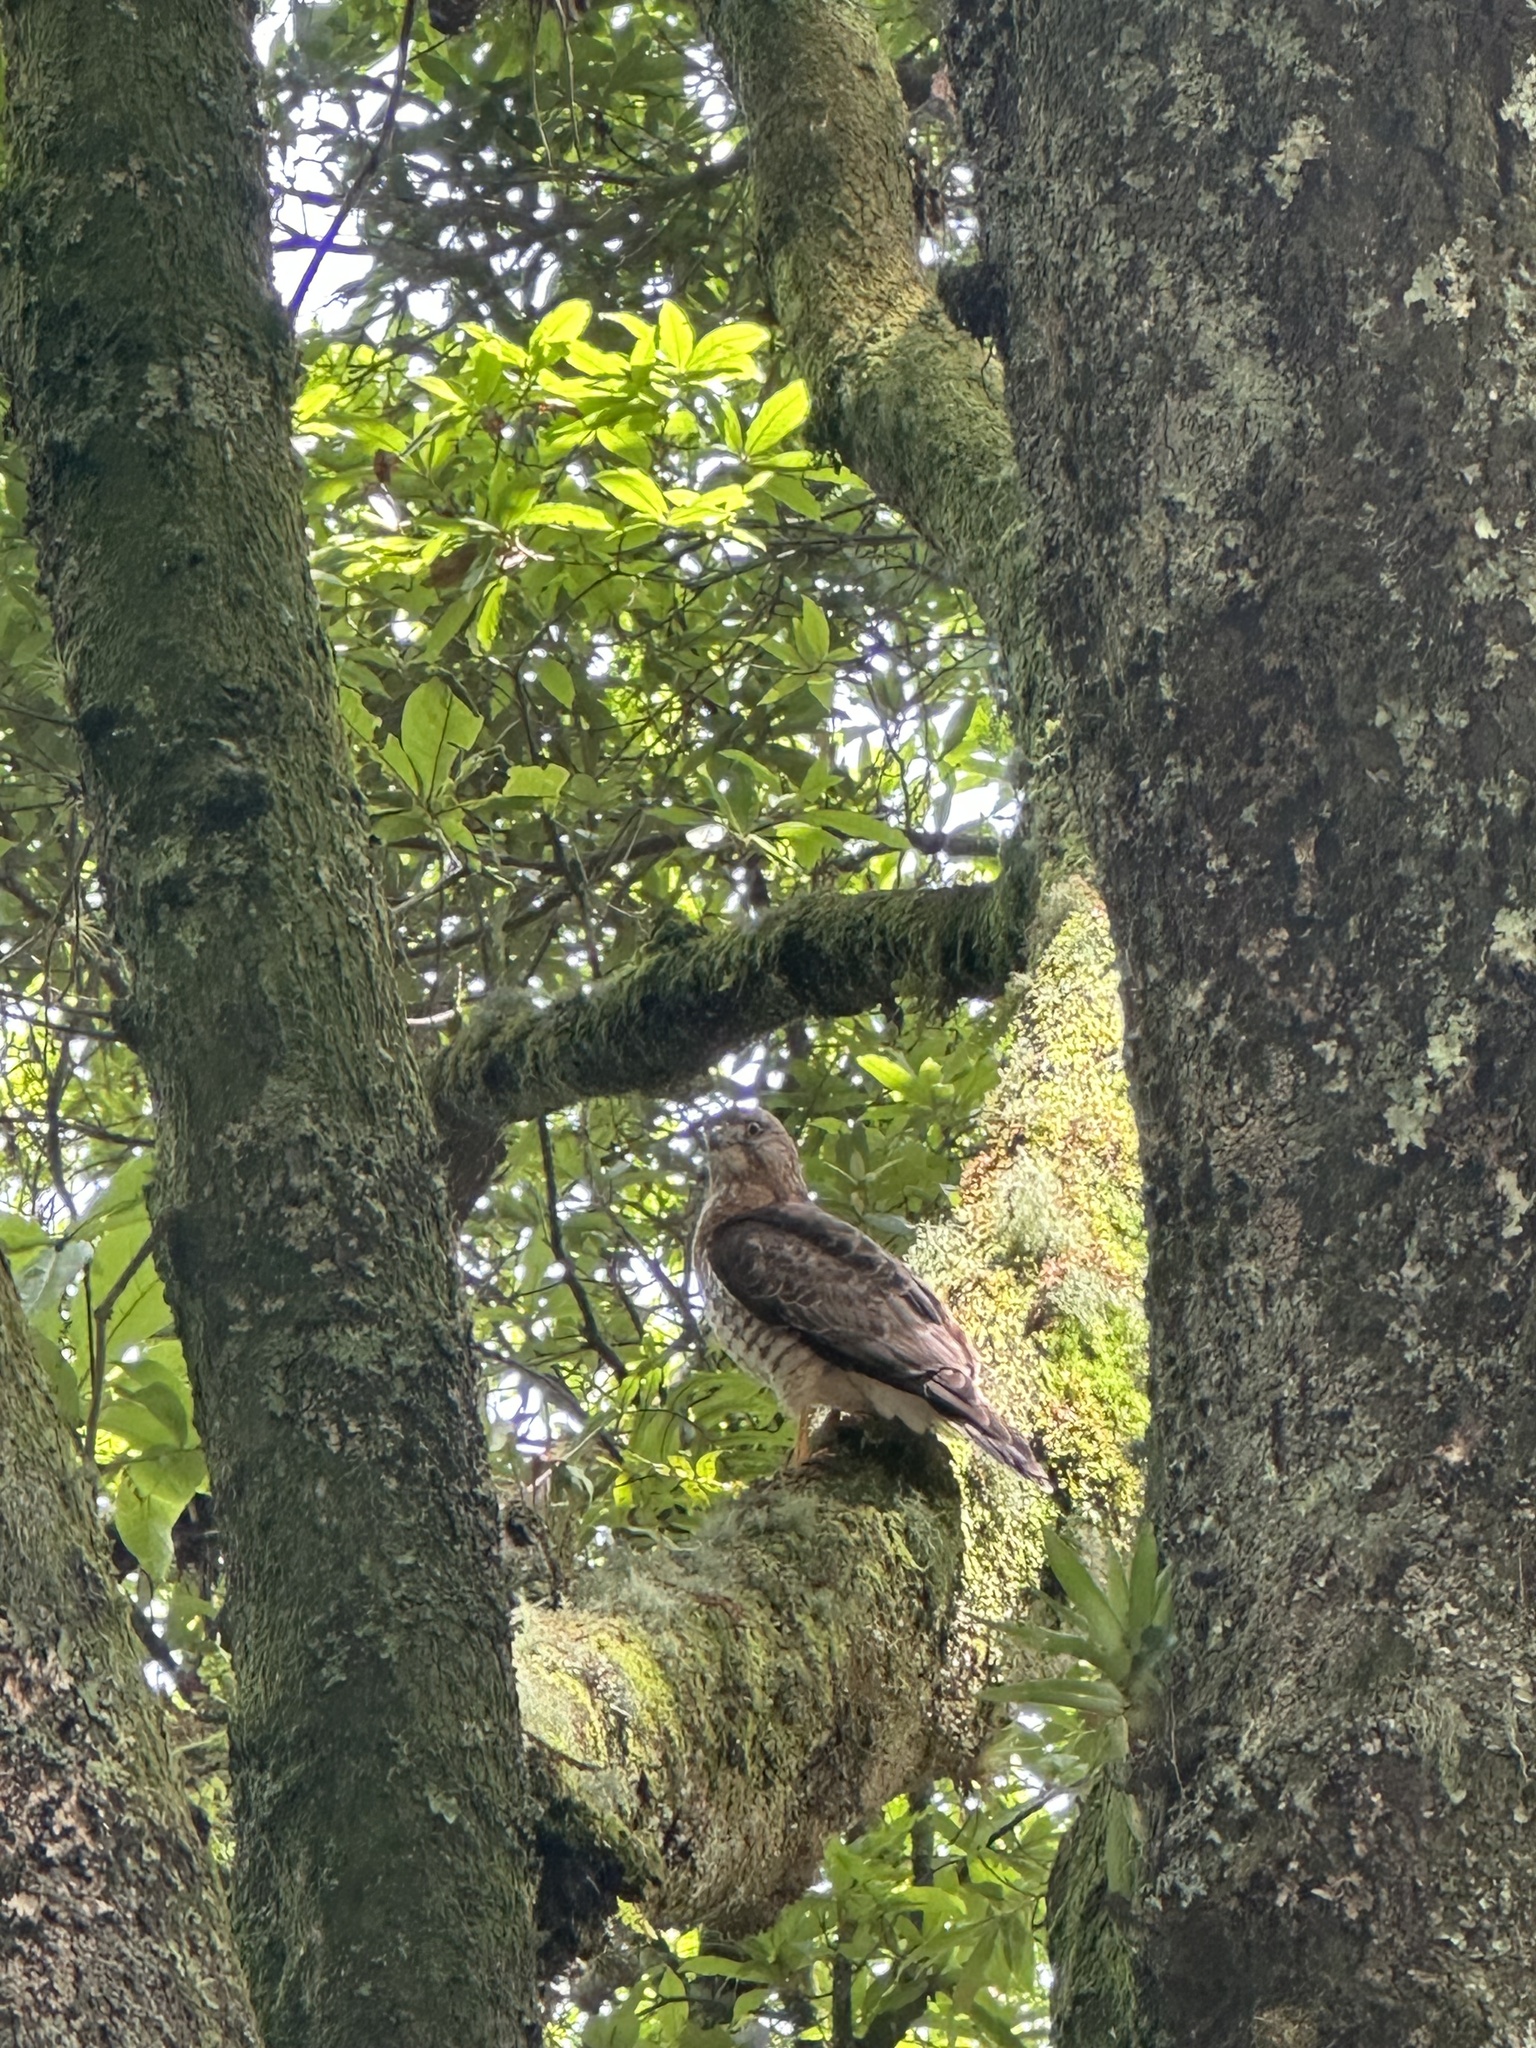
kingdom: Animalia
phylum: Chordata
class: Aves
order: Accipitriformes
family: Accipitridae
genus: Buteo
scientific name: Buteo platypterus
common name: Broad-winged hawk
